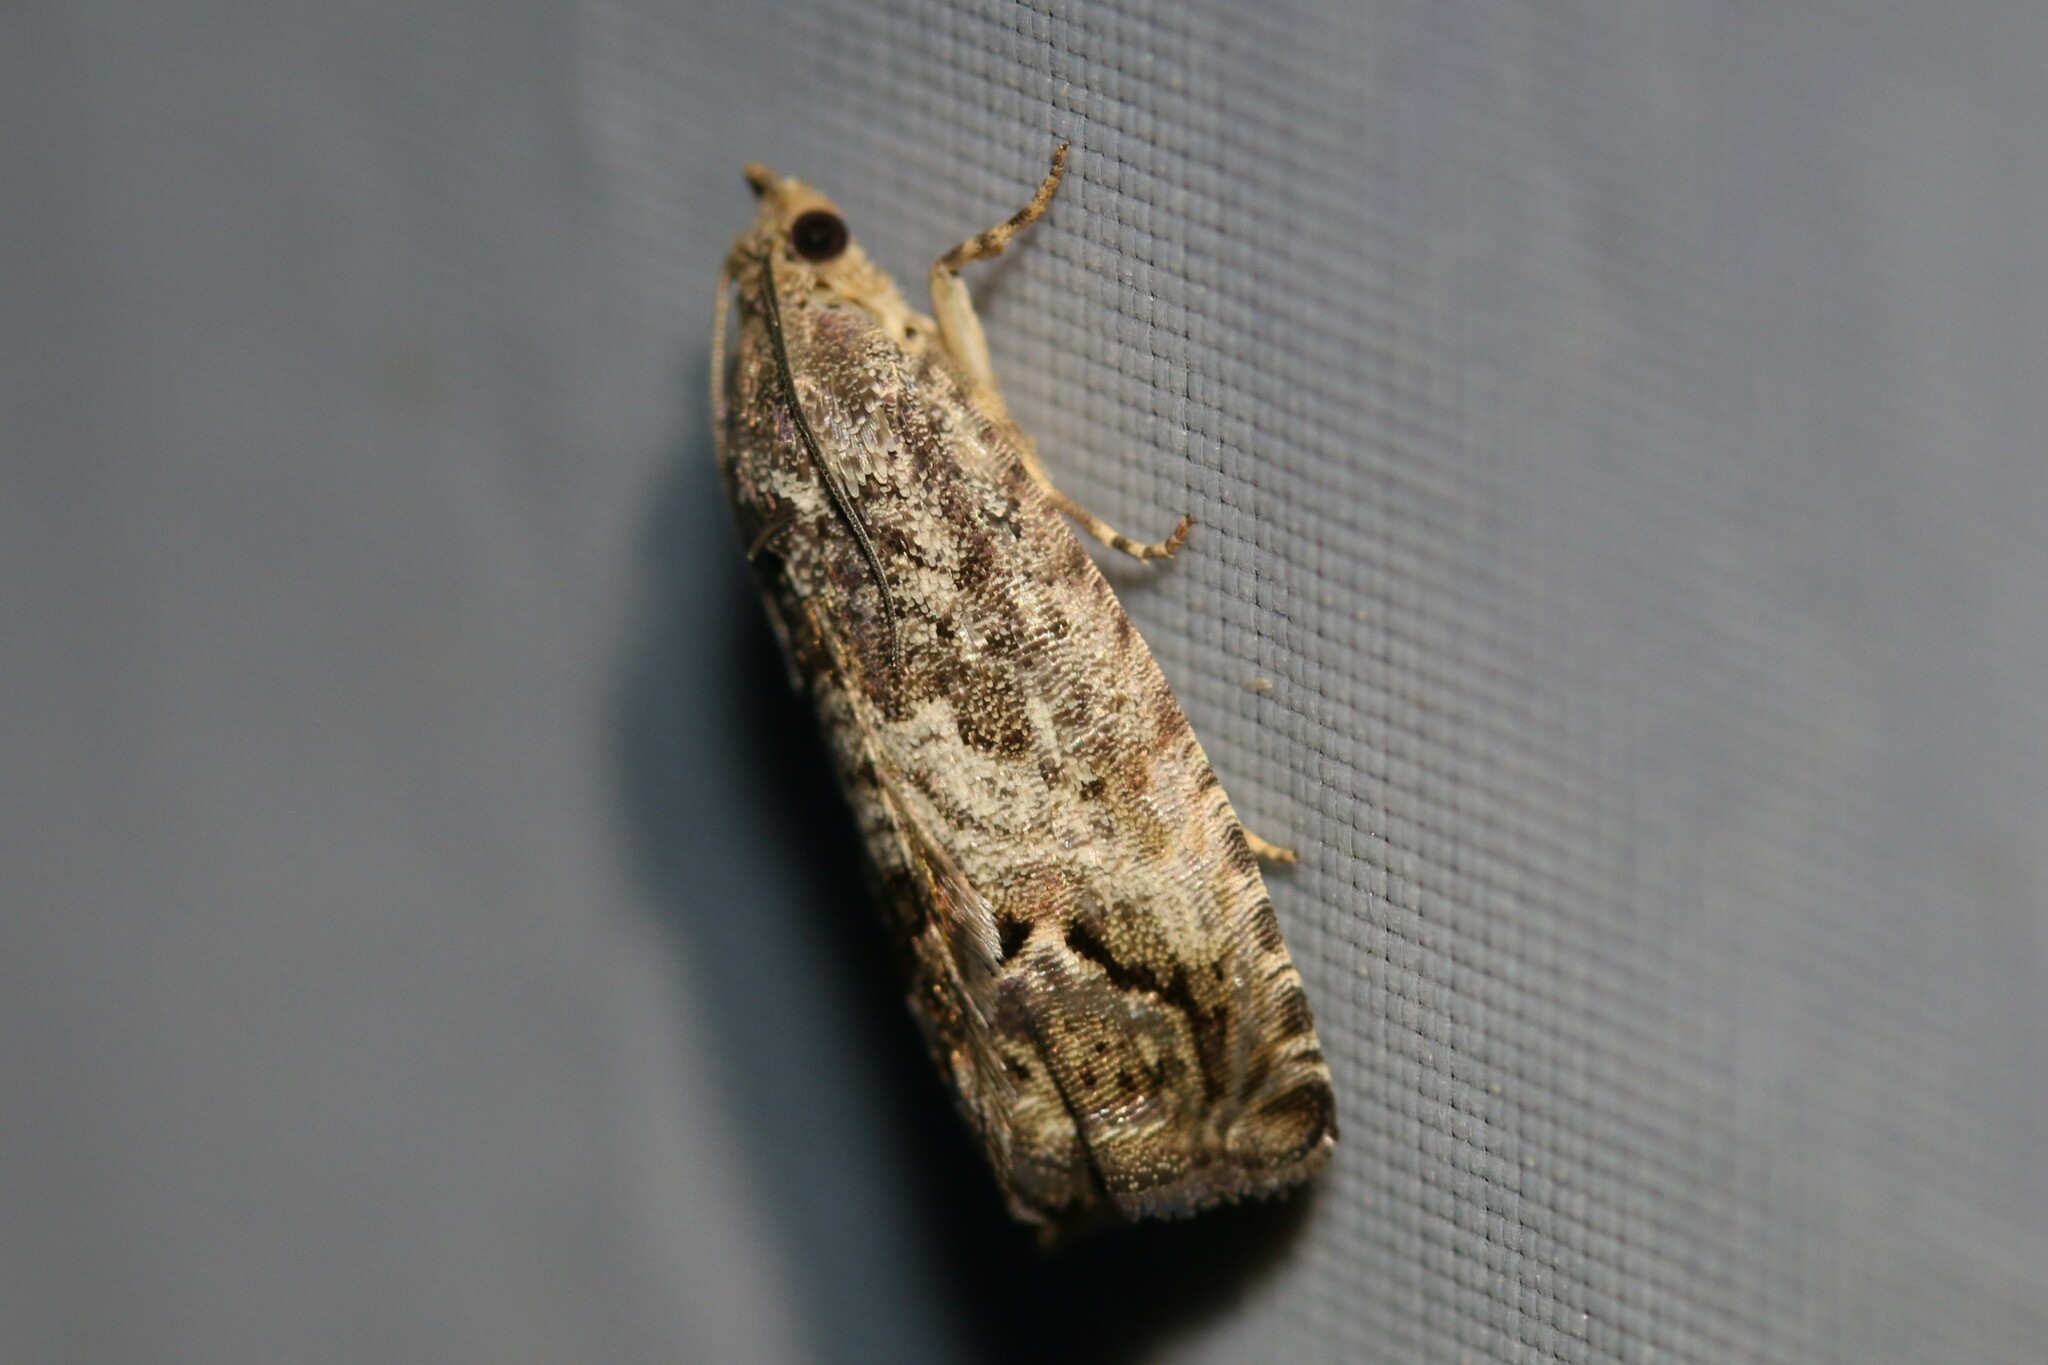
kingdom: Animalia
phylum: Arthropoda
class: Insecta
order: Lepidoptera
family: Tortricidae
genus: Cydia
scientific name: Cydia splendana
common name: De: kastanienwickler, eichenwickler es: oruga de la castaña fr: carpocapse des châtaignes it: cidia o tortrice tardiva delle castagne pt: bichado das castanhas gb: acorn moth, chestnut fruit tortrix
